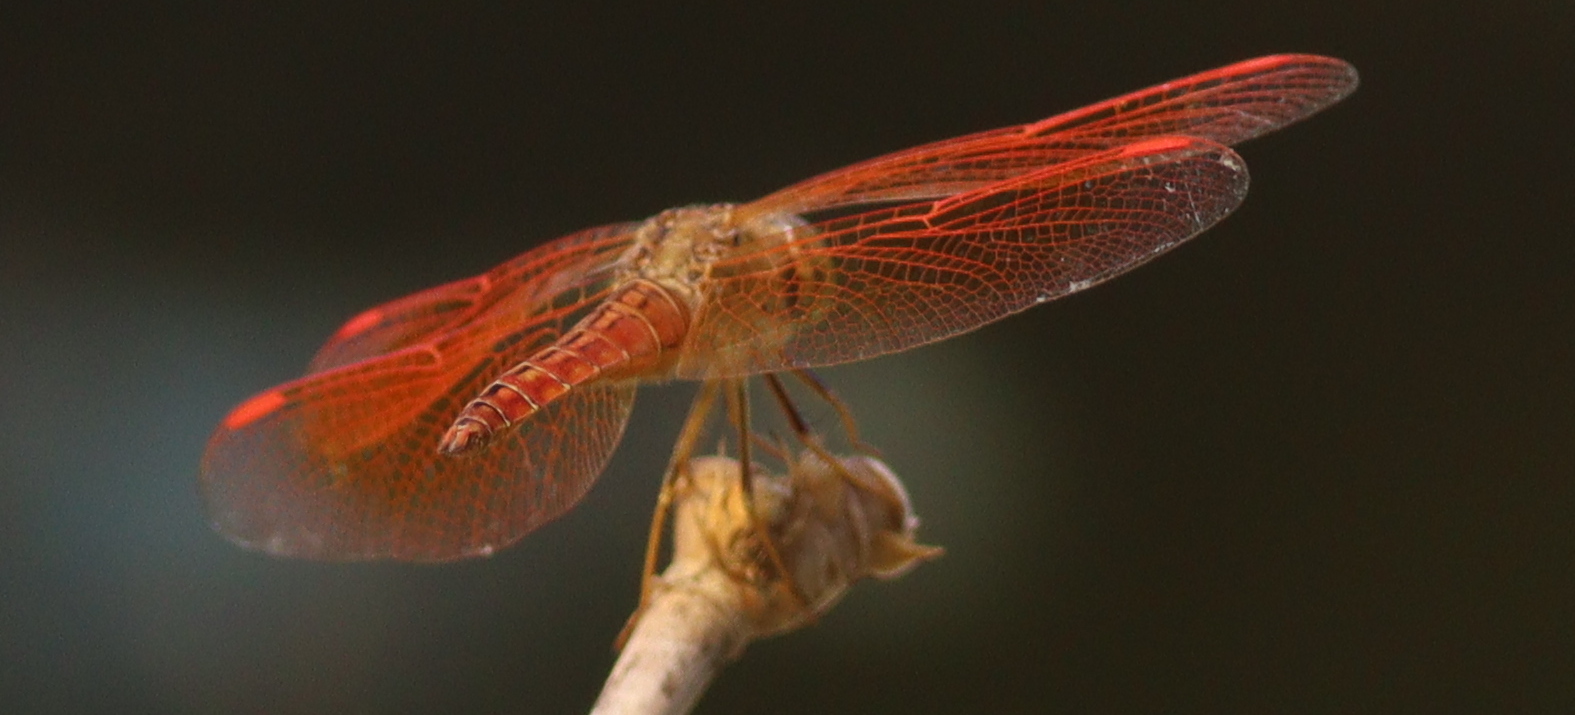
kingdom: Animalia
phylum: Arthropoda
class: Insecta
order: Odonata
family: Libellulidae
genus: Brachythemis
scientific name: Brachythemis contaminata
